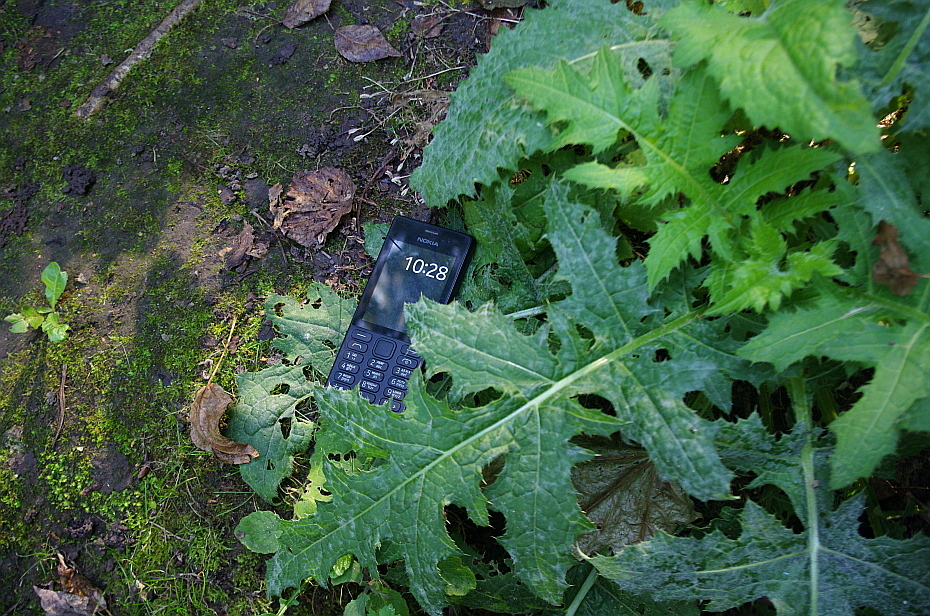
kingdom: Plantae
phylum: Tracheophyta
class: Magnoliopsida
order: Asterales
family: Asteraceae
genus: Cirsium
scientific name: Cirsium oleraceum
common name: Cabbage thistle
